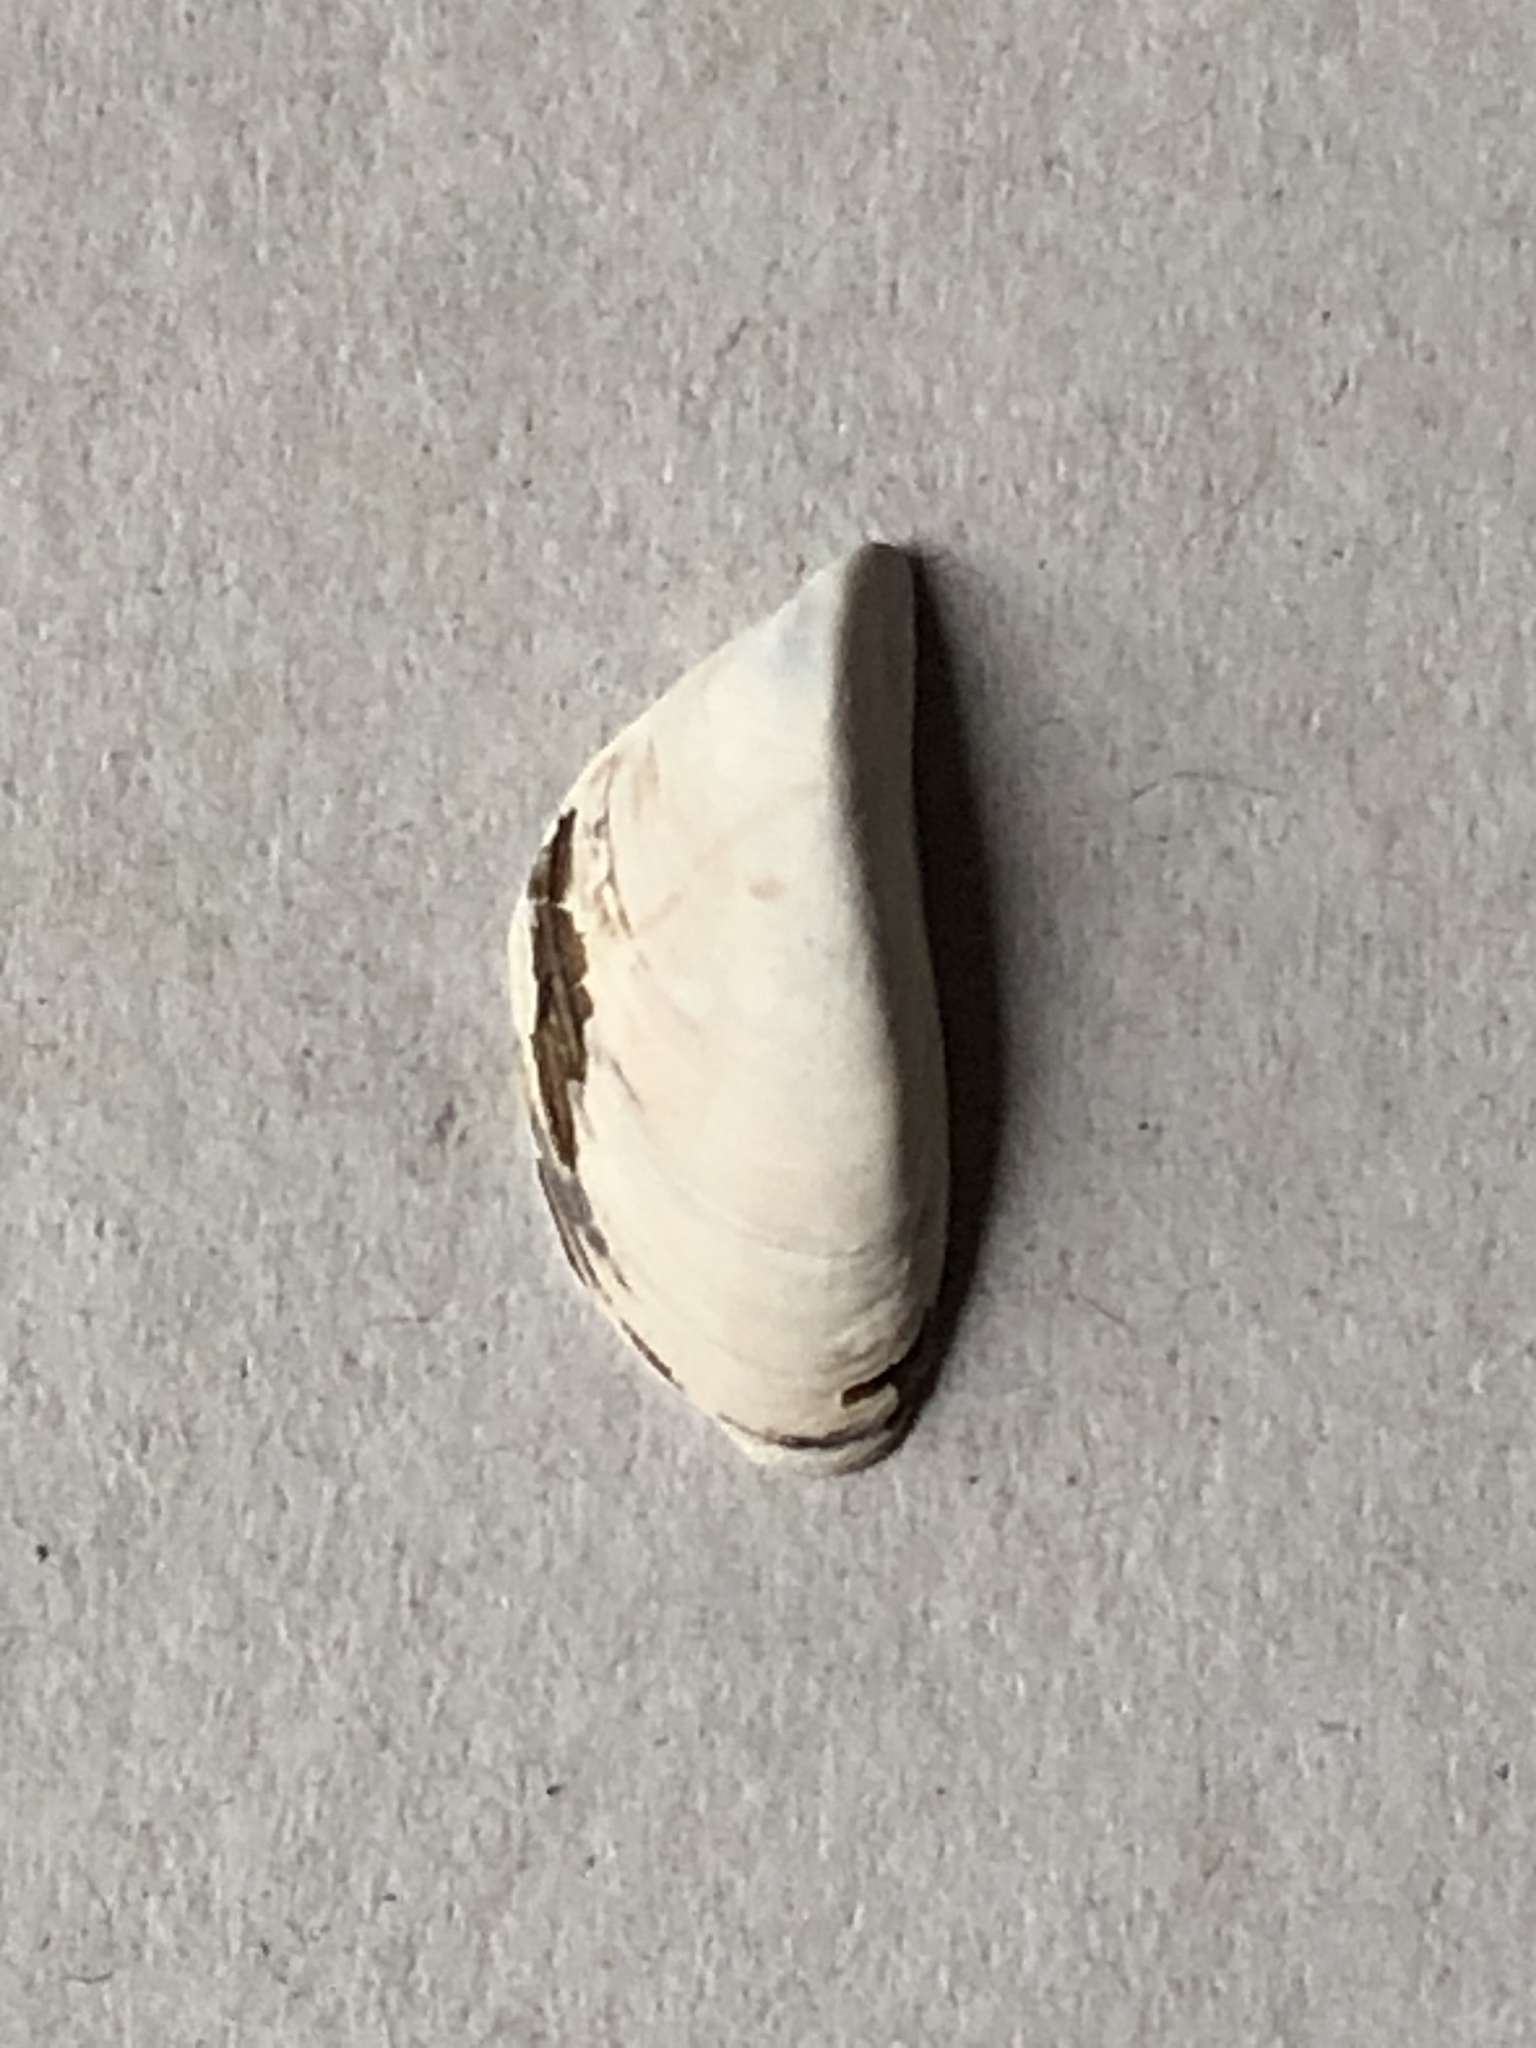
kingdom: Animalia
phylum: Mollusca
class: Bivalvia
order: Myida
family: Dreissenidae
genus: Dreissena
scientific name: Dreissena polymorpha
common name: Zebra mussel
